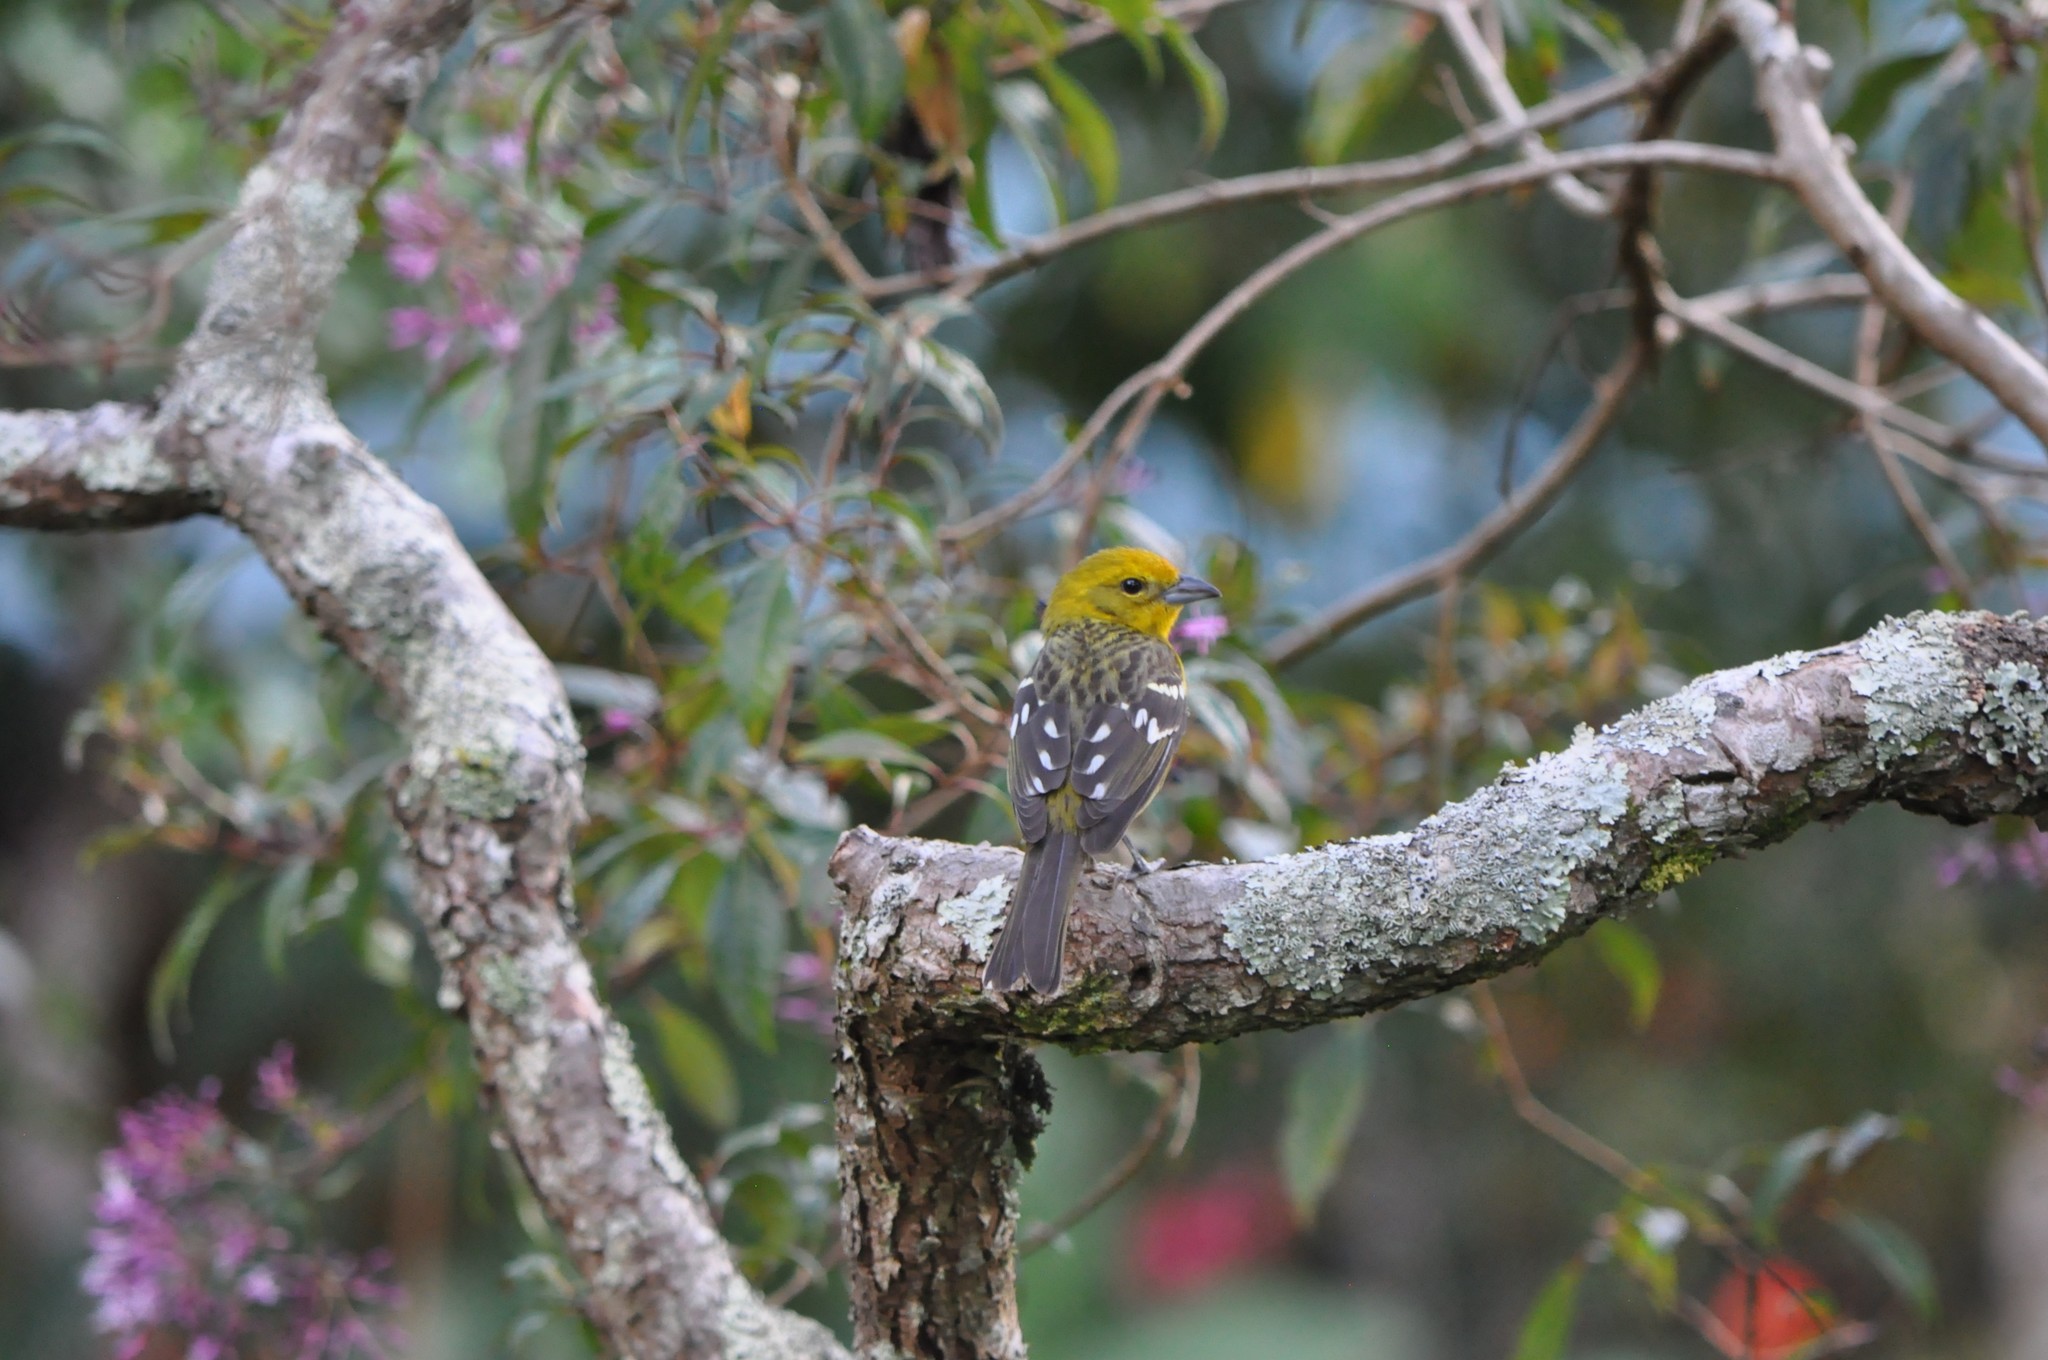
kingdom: Animalia
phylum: Chordata
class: Aves
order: Passeriformes
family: Cardinalidae
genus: Piranga
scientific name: Piranga bidentata
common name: Flame-colored tanager
